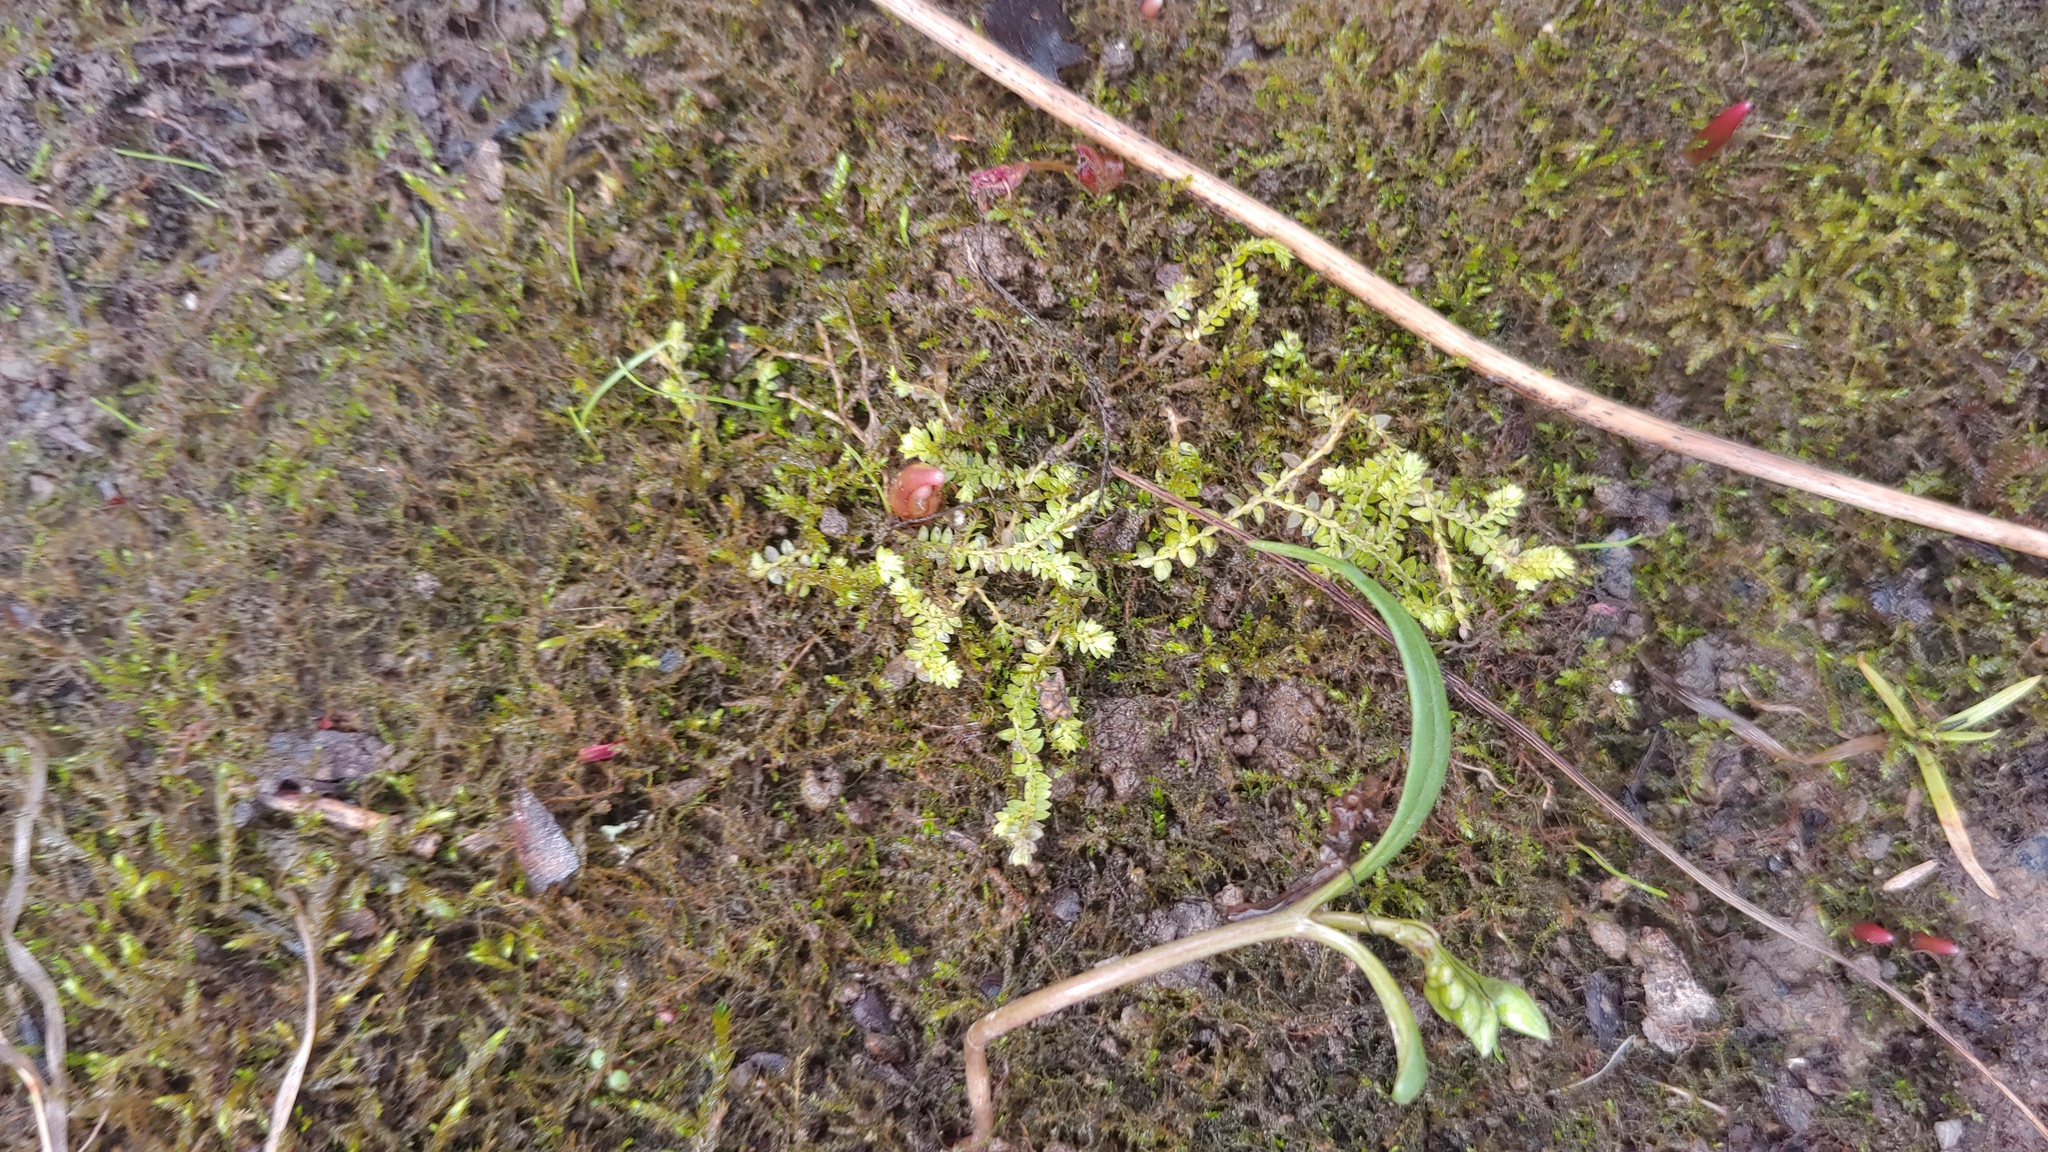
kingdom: Plantae
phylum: Tracheophyta
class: Lycopodiopsida
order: Selaginellales
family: Selaginellaceae
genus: Selaginella
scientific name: Selaginella apoda
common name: Creeping spikemoss
